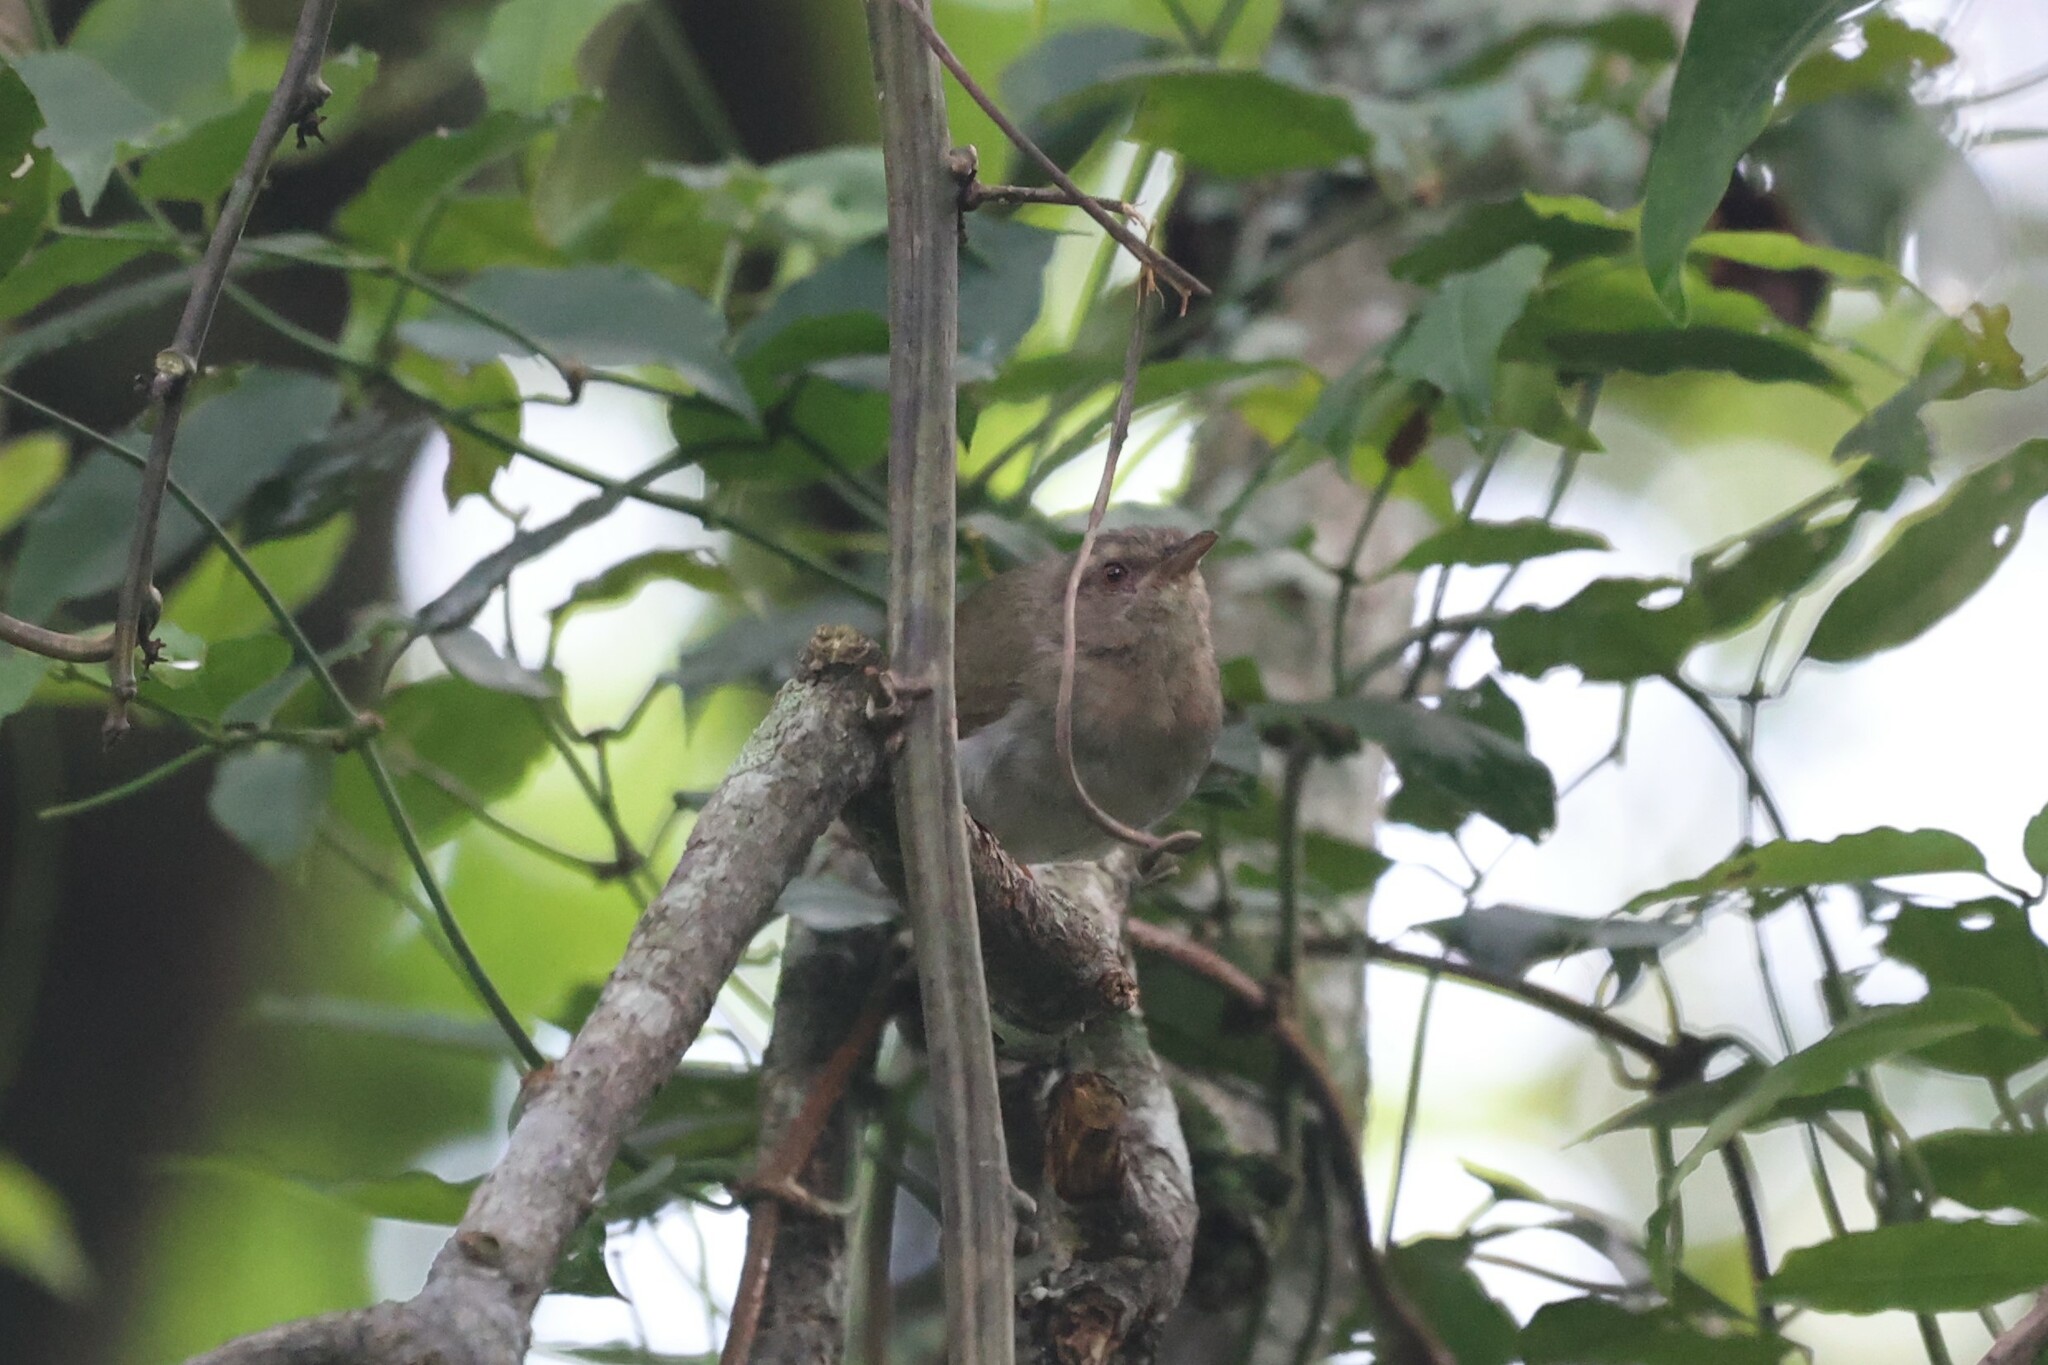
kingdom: Animalia
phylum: Chordata
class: Aves
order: Passeriformes
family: Macrosphenidae
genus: Sylvietta
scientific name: Sylvietta virens
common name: Green crombec
